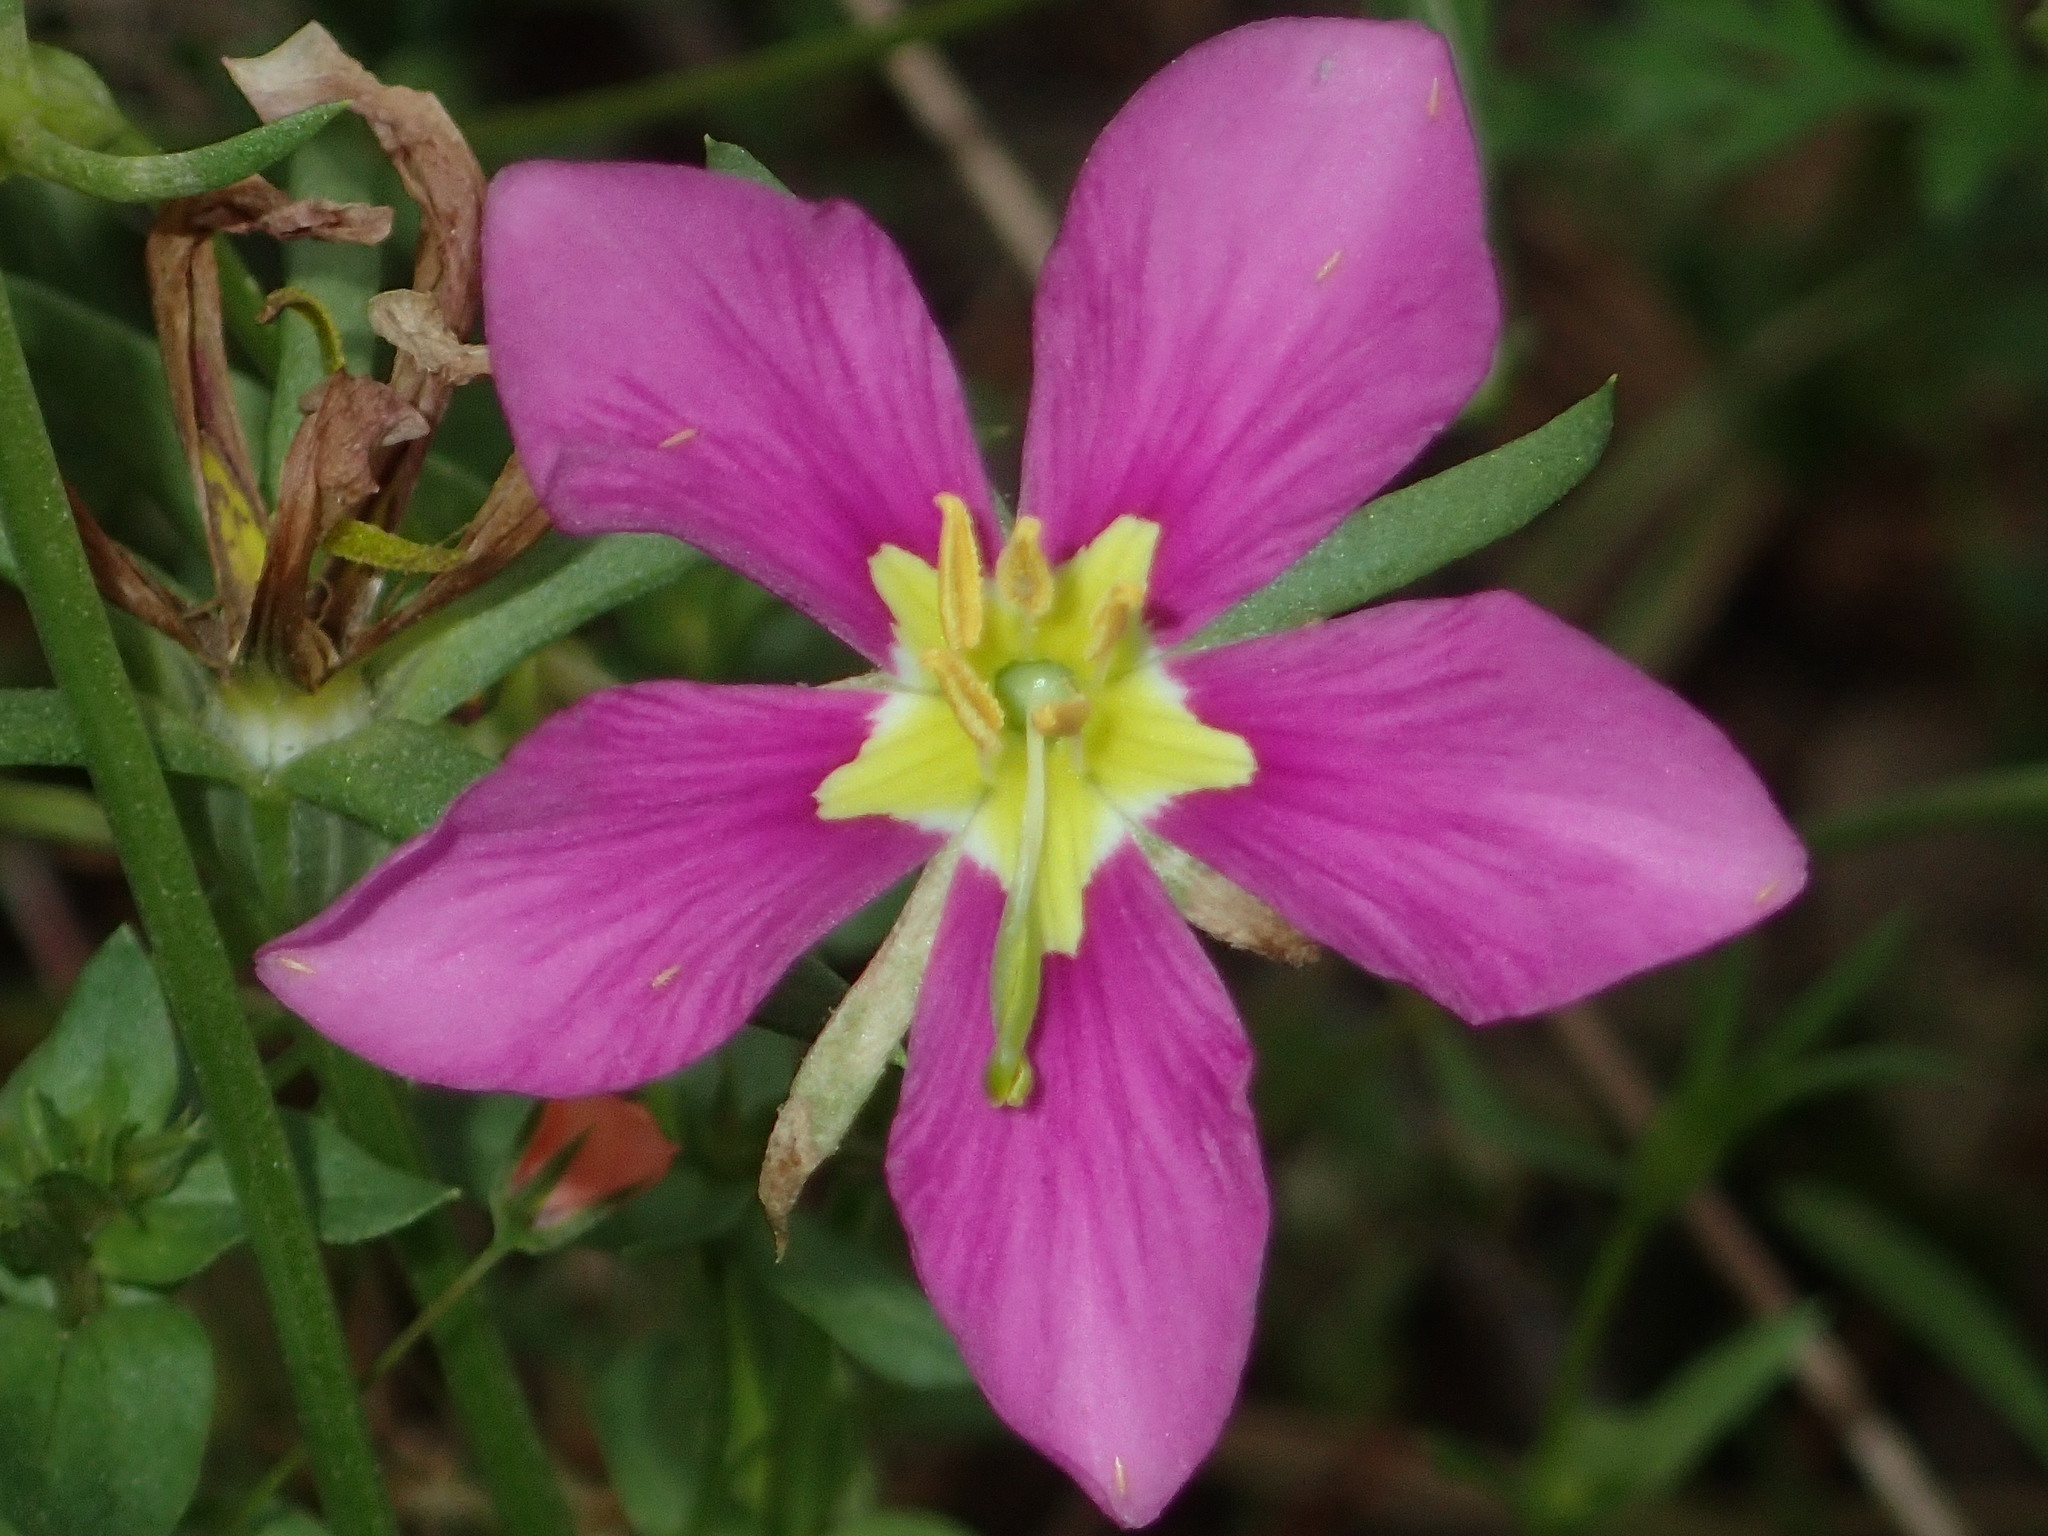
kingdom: Plantae
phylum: Tracheophyta
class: Magnoliopsida
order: Gentianales
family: Gentianaceae
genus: Sabatia
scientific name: Sabatia campestris
